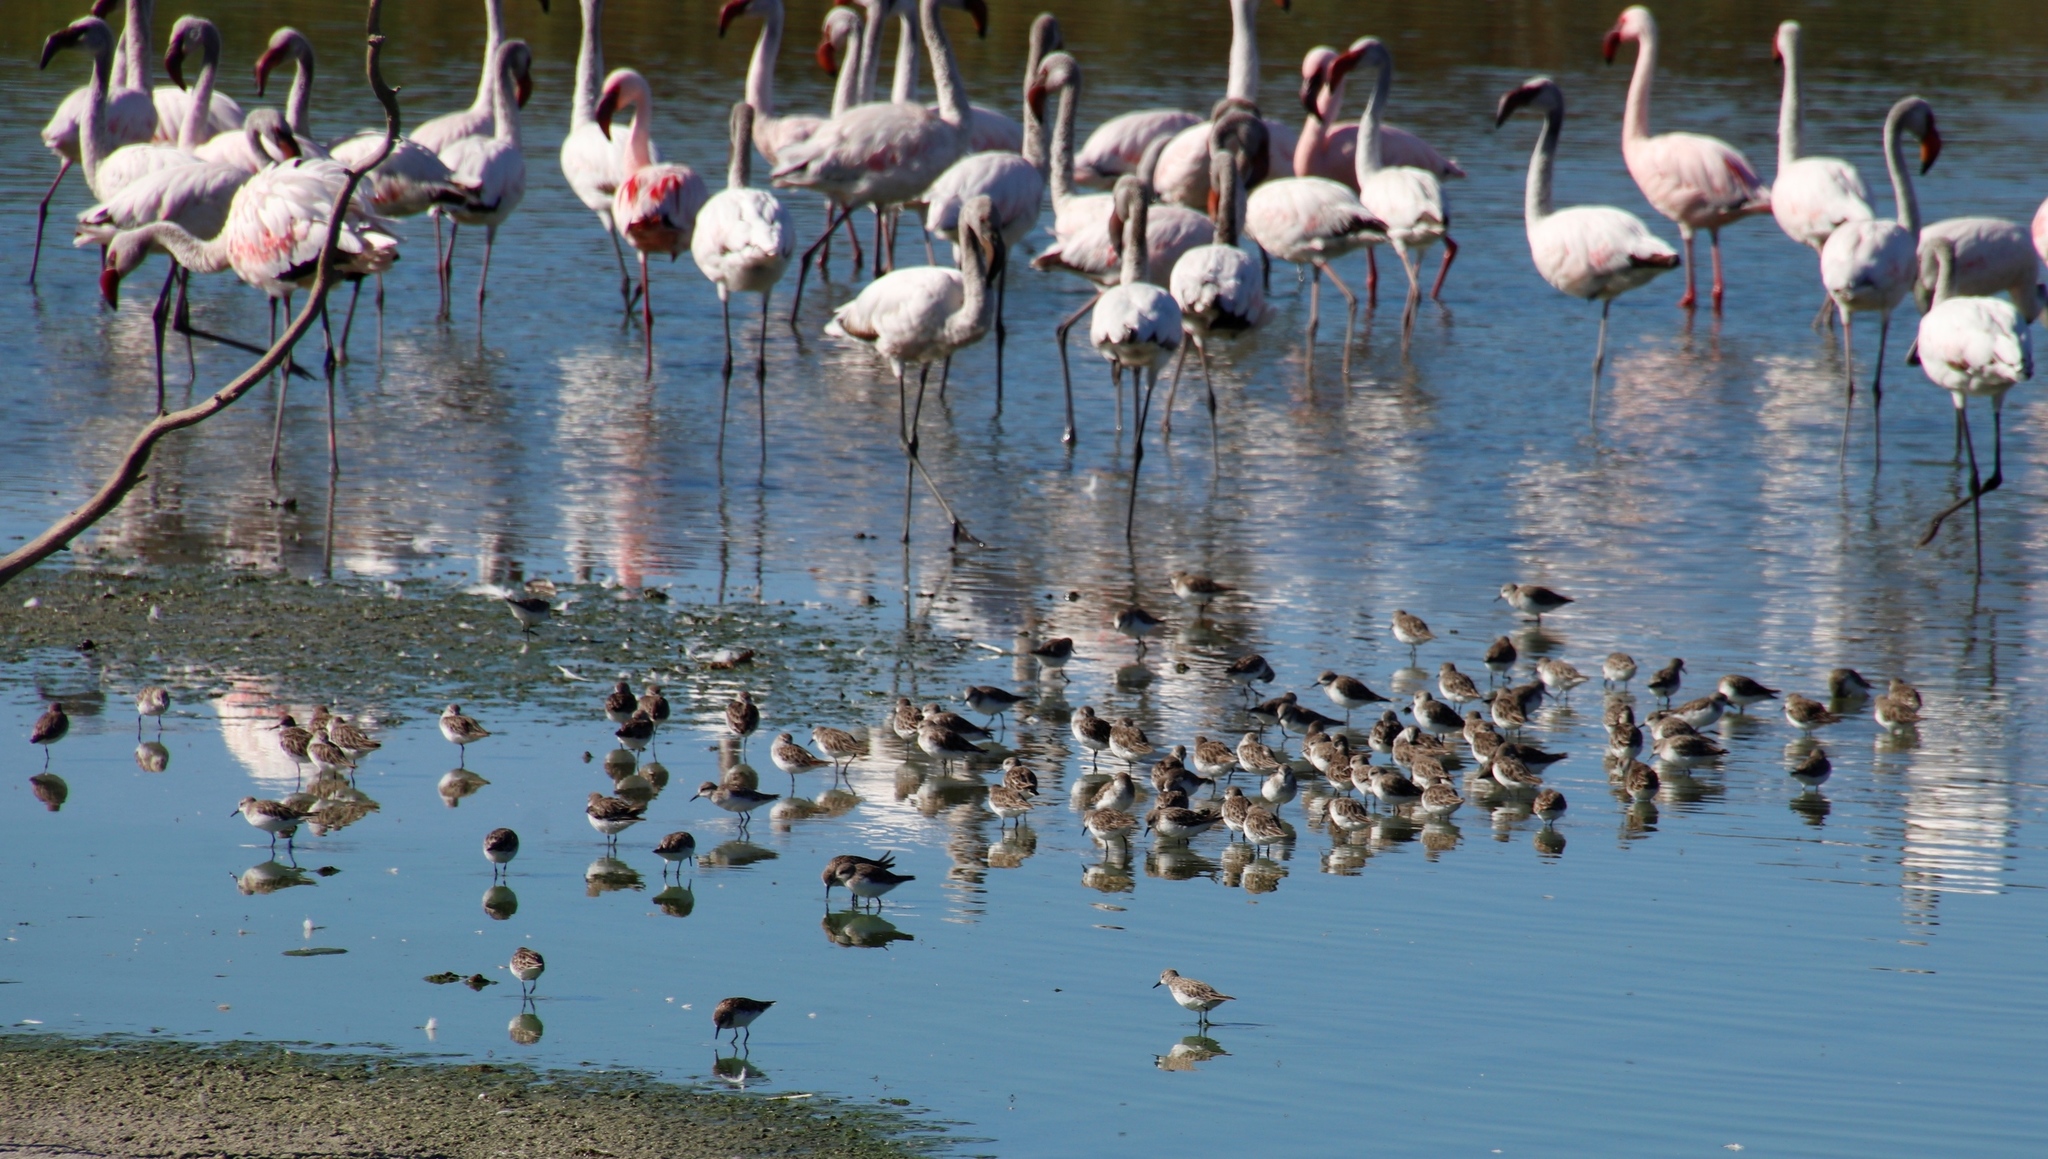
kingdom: Animalia
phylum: Chordata
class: Aves
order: Charadriiformes
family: Scolopacidae
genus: Calidris
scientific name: Calidris minuta
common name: Little stint
